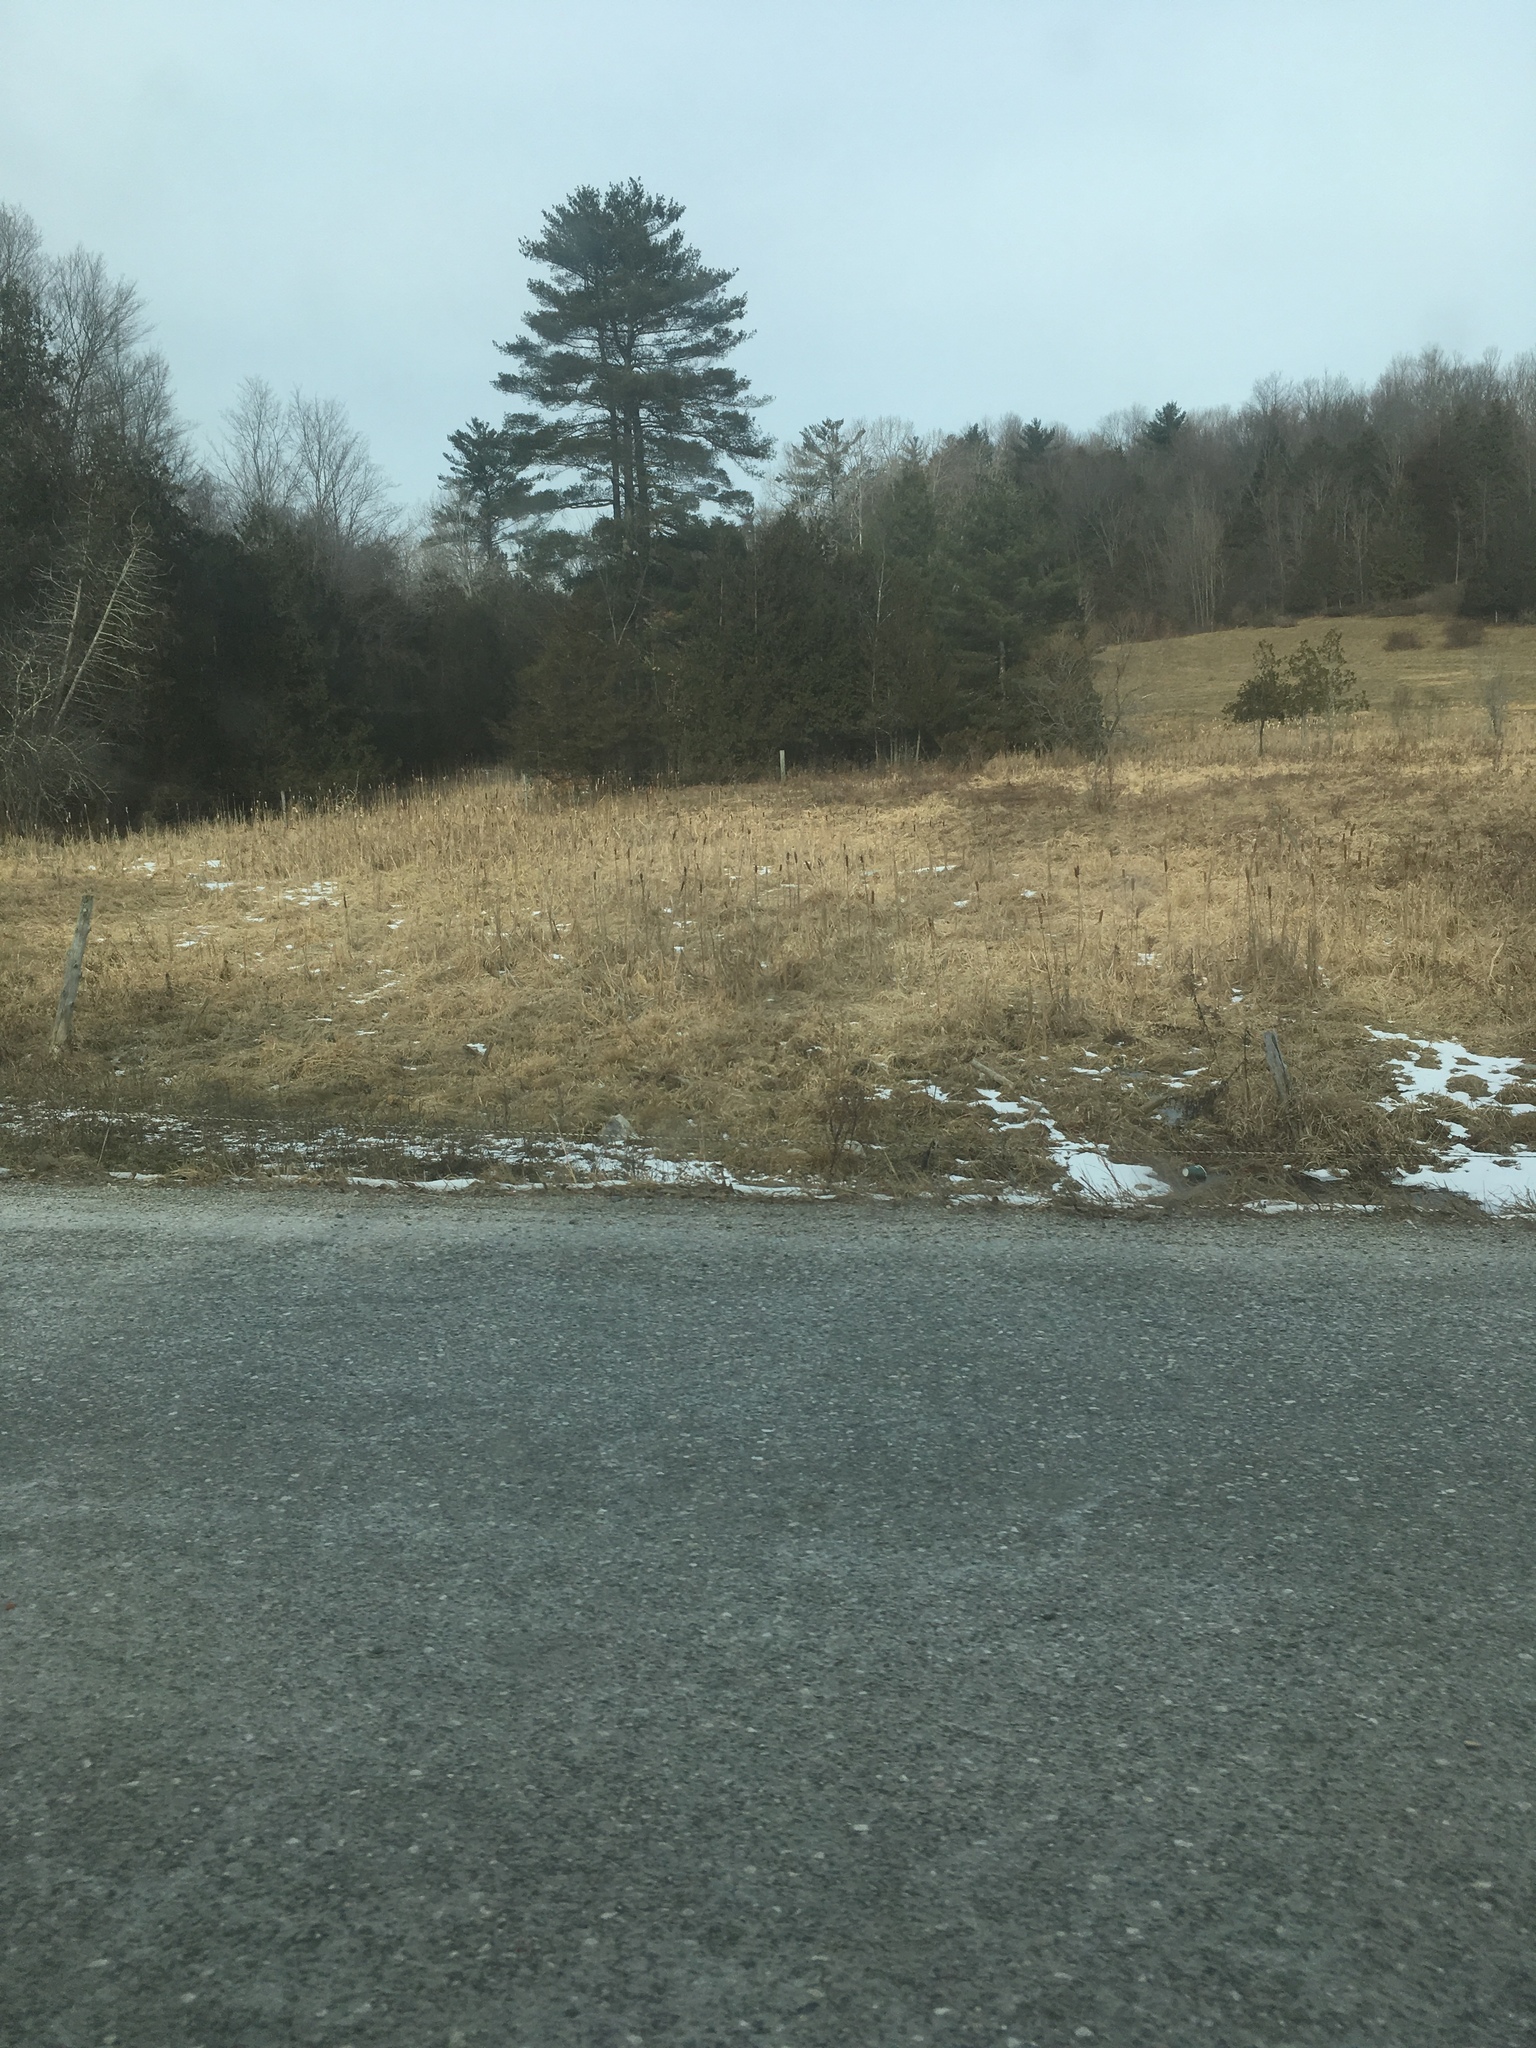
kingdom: Plantae
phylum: Tracheophyta
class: Liliopsida
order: Poales
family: Typhaceae
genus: Typha
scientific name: Typha
